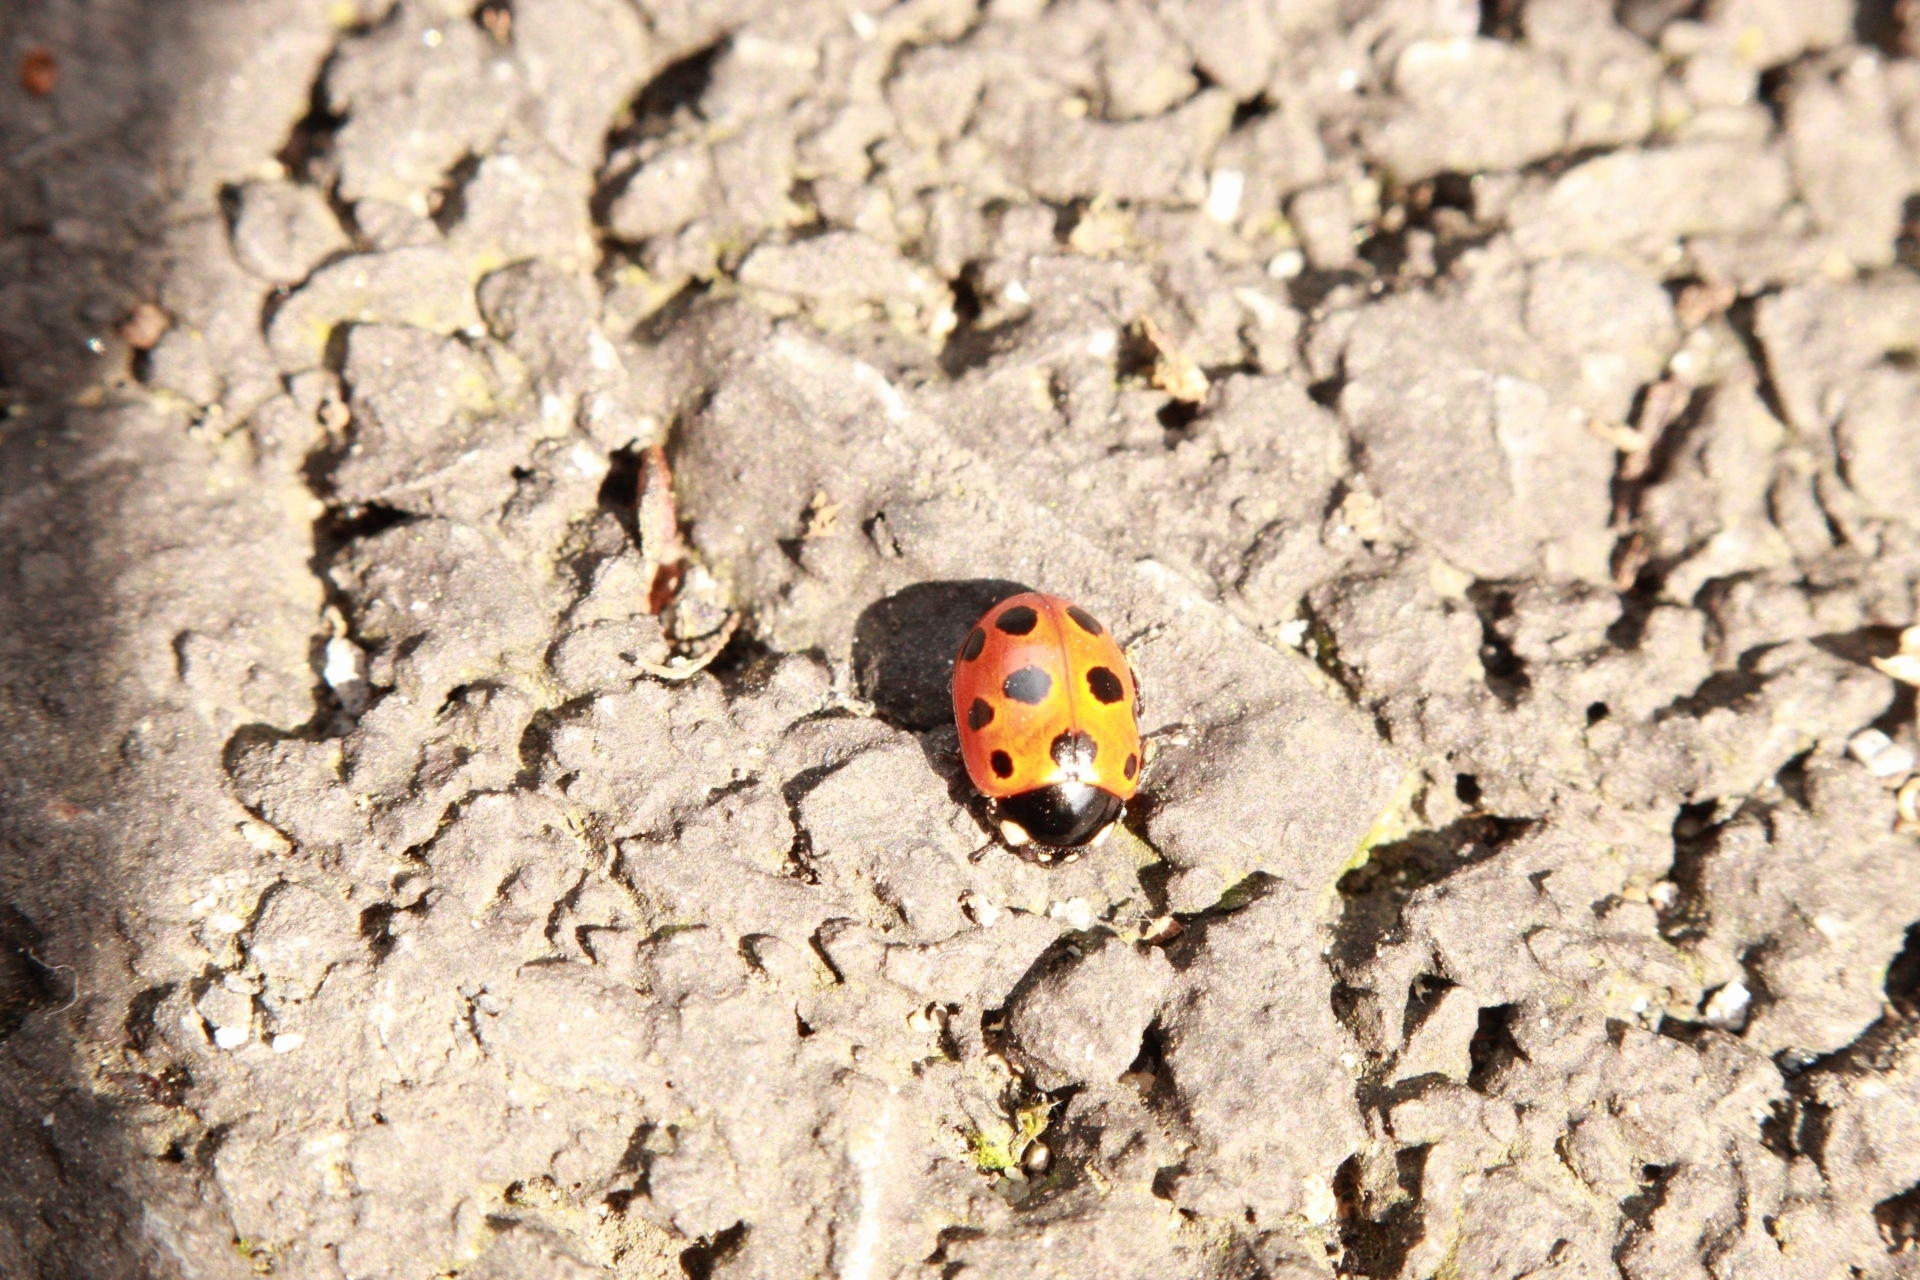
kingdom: Animalia
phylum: Arthropoda
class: Insecta
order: Coleoptera
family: Coccinellidae
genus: Coccinella
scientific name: Coccinella undecimpunctata
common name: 11-spot ladybird
